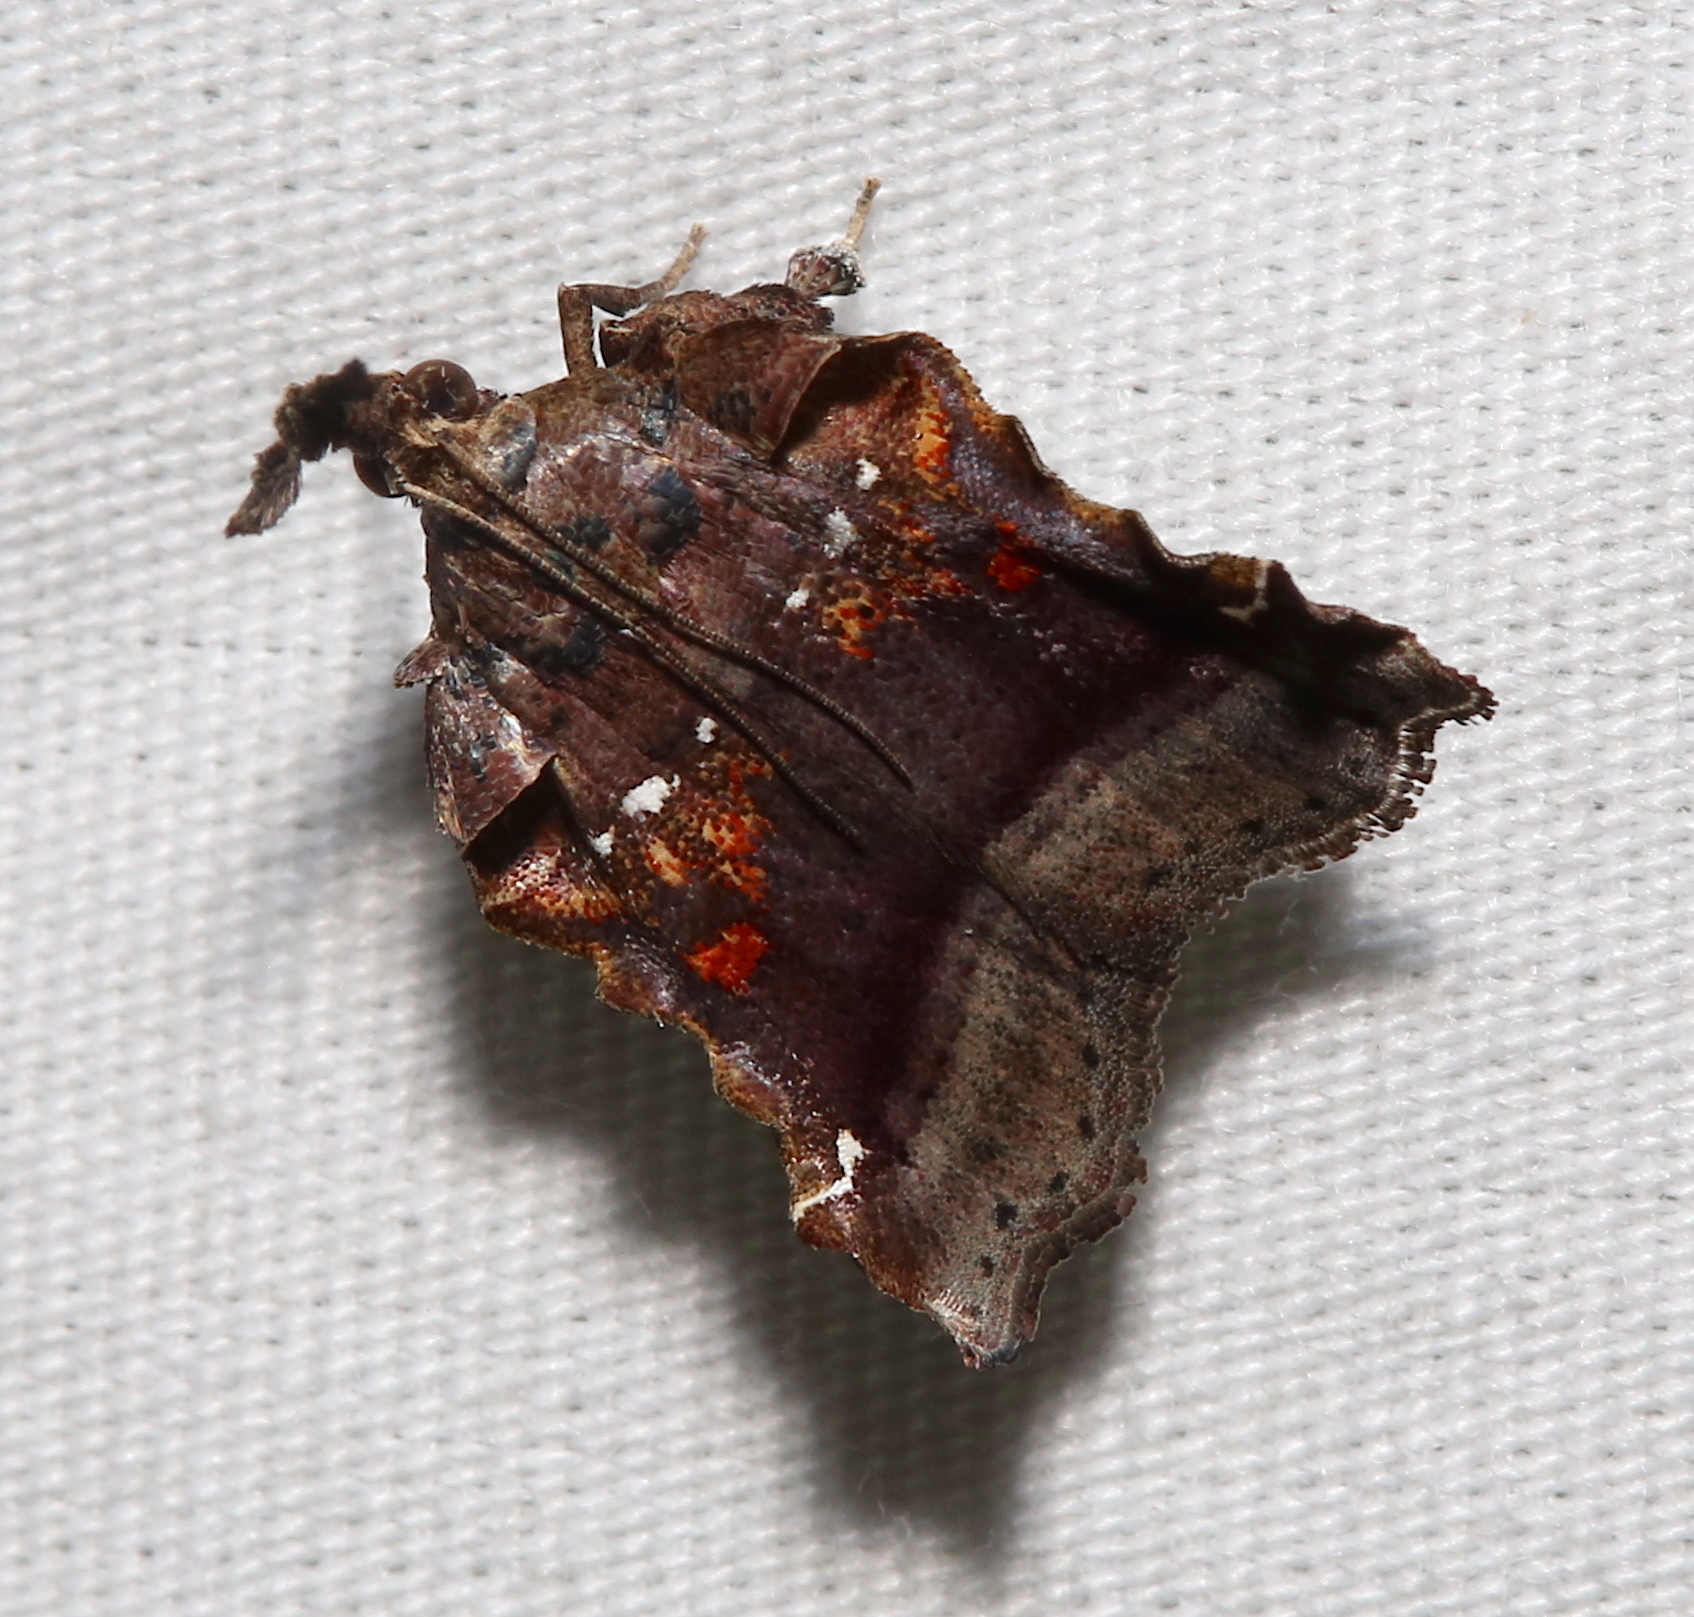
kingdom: Animalia
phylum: Arthropoda
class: Insecta
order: Lepidoptera
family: Pyralidae
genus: Clydonopteron
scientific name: Clydonopteron sacculana
